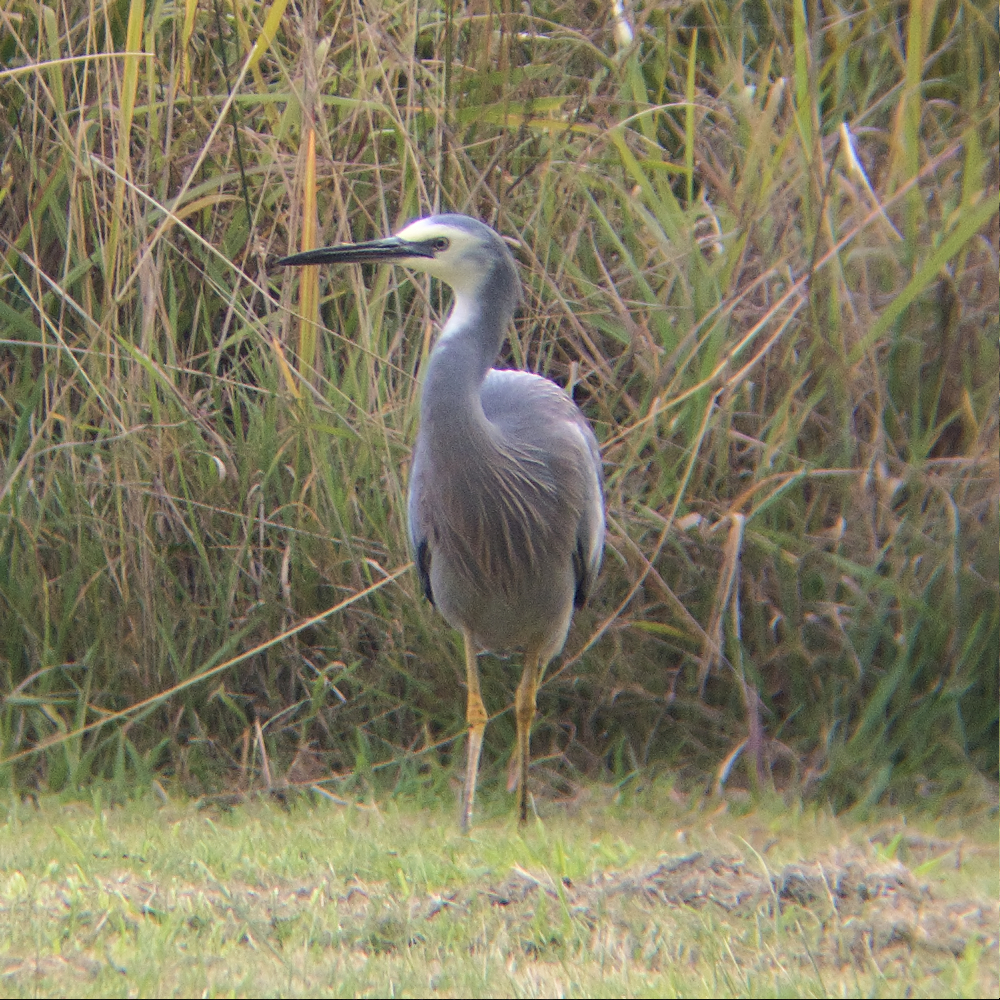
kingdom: Animalia
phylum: Chordata
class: Aves
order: Pelecaniformes
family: Ardeidae
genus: Egretta
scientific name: Egretta novaehollandiae
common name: White-faced heron
